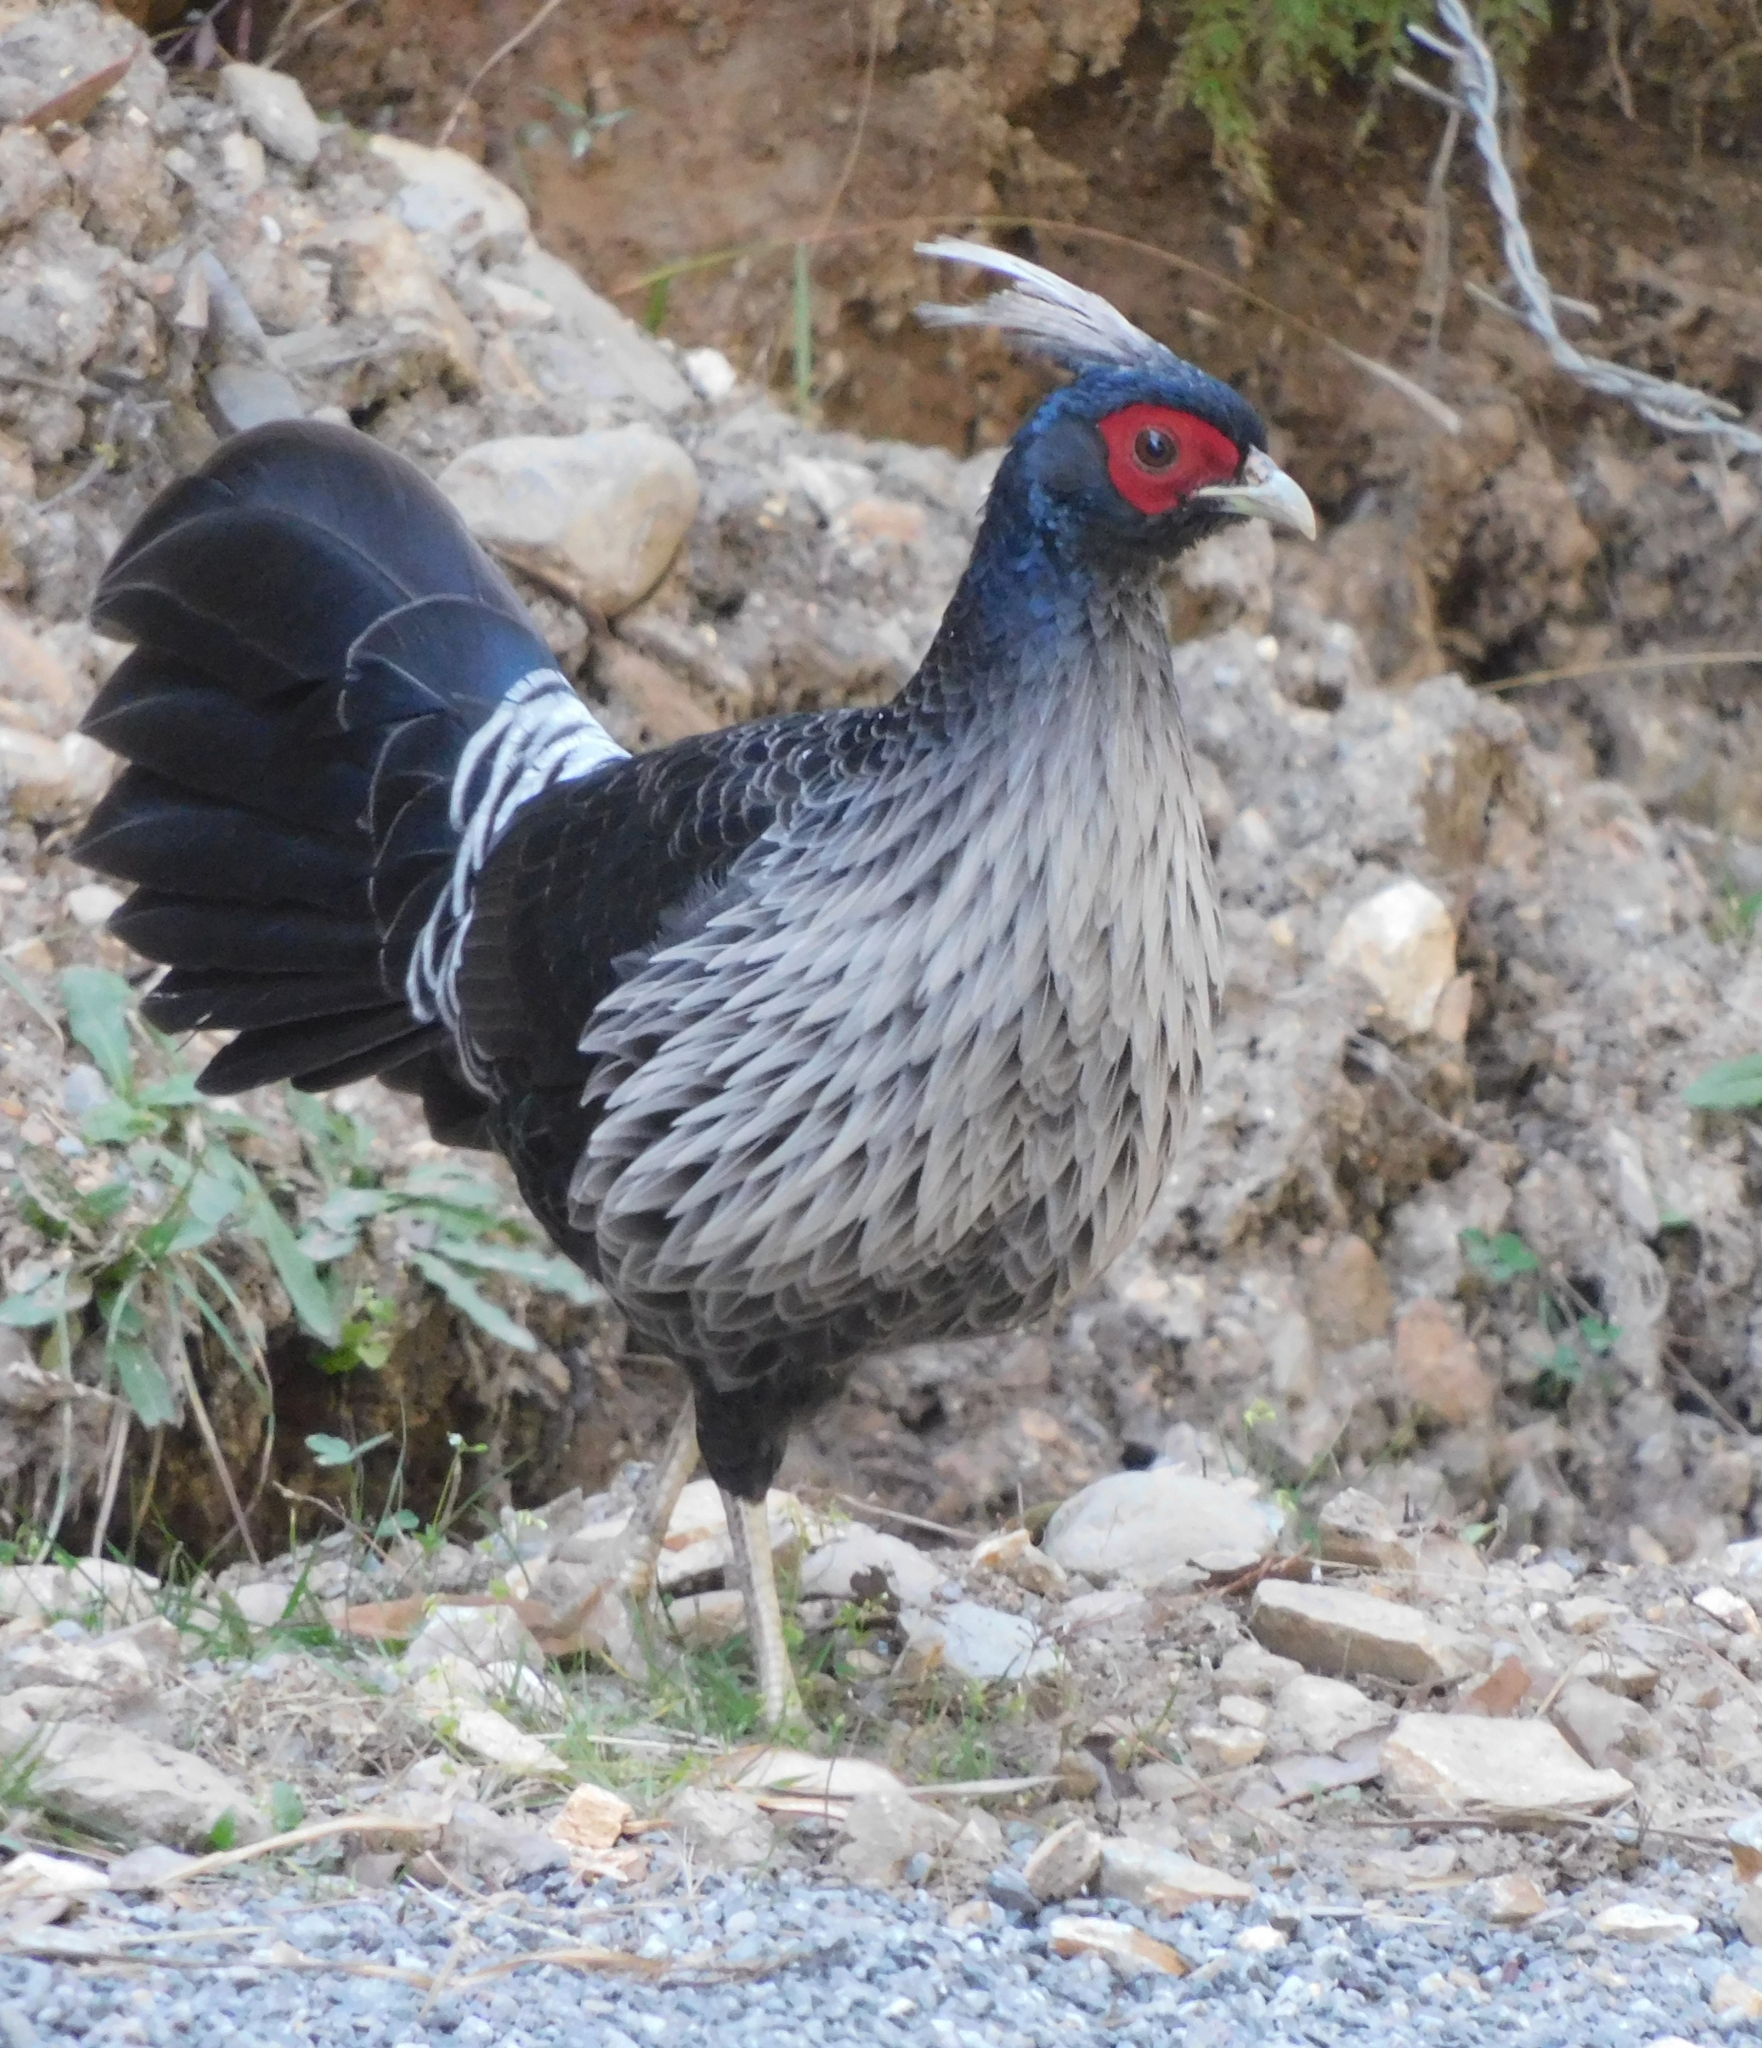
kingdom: Animalia
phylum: Chordata
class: Aves
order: Galliformes
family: Phasianidae
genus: Lophura
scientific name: Lophura leucomelanos
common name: Kalij pheasant
